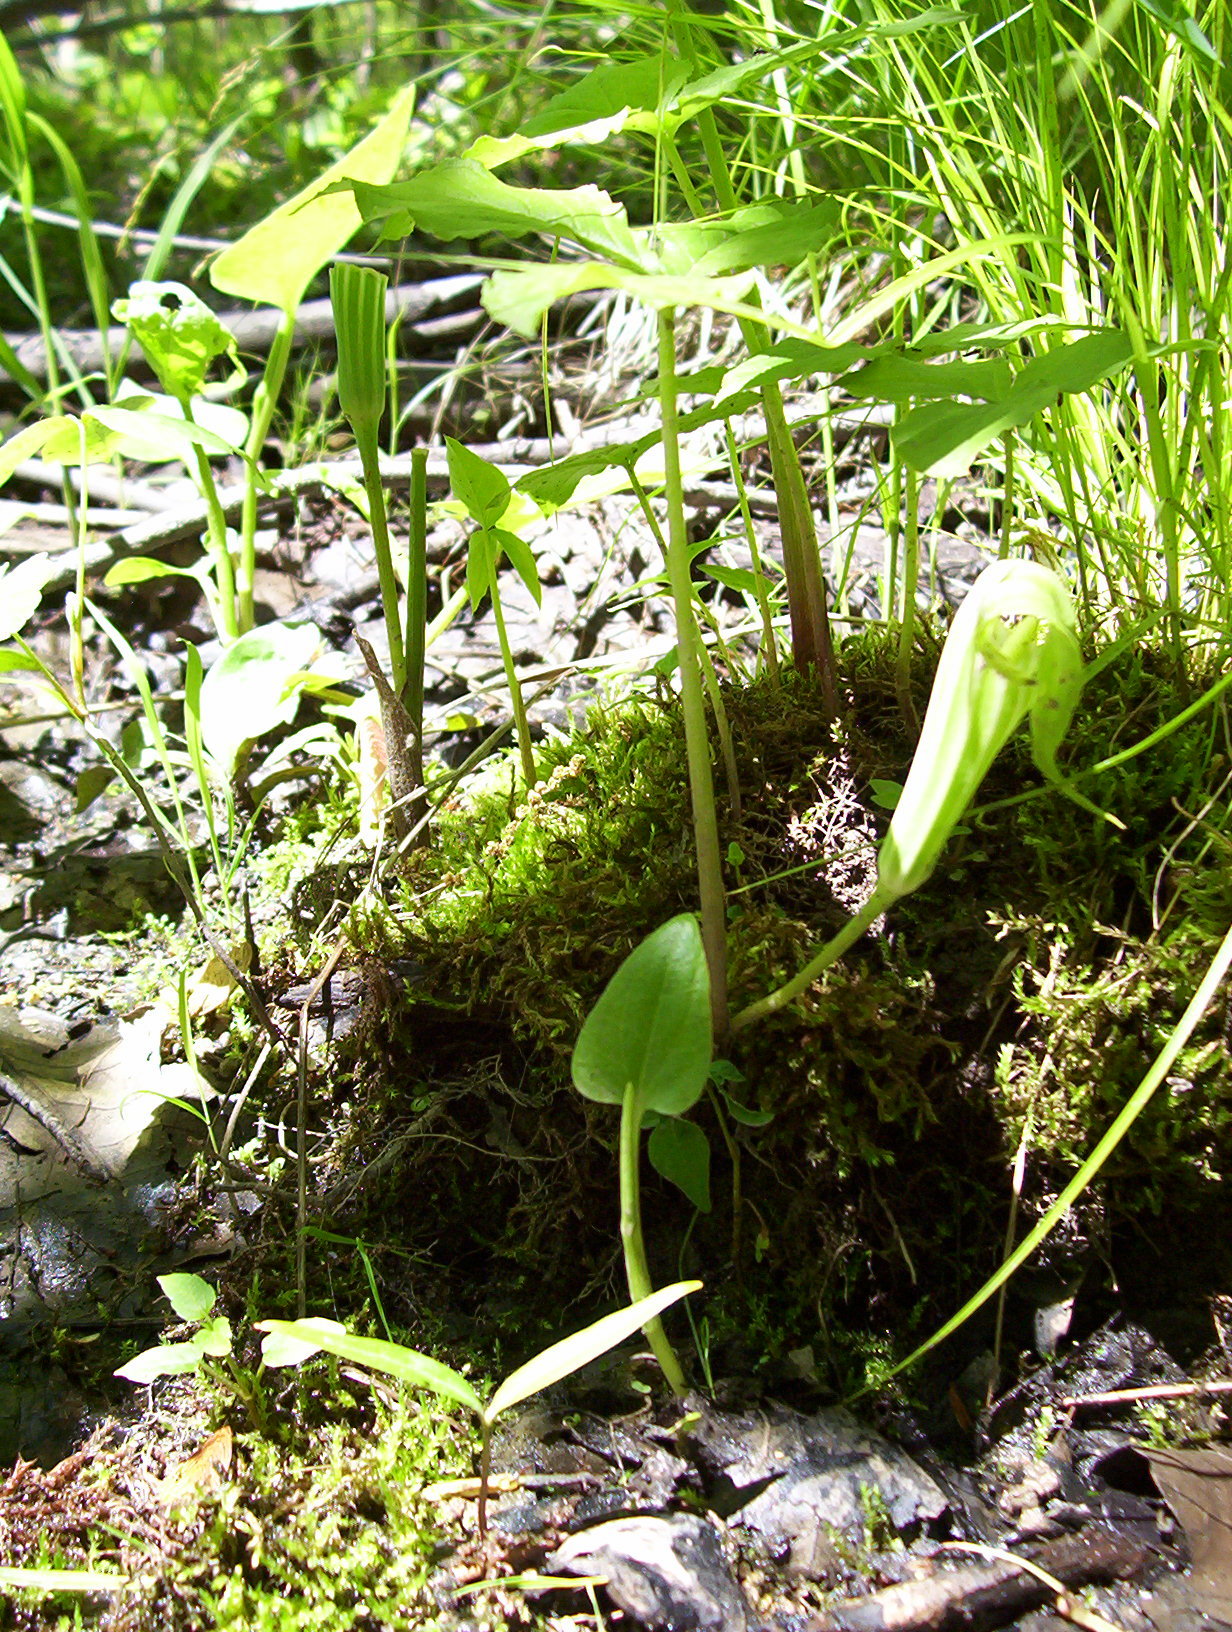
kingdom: Plantae
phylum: Tracheophyta
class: Liliopsida
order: Alismatales
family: Araceae
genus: Arisaema
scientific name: Arisaema stewardsonii
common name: Swamp jack-in-the-pulpit
